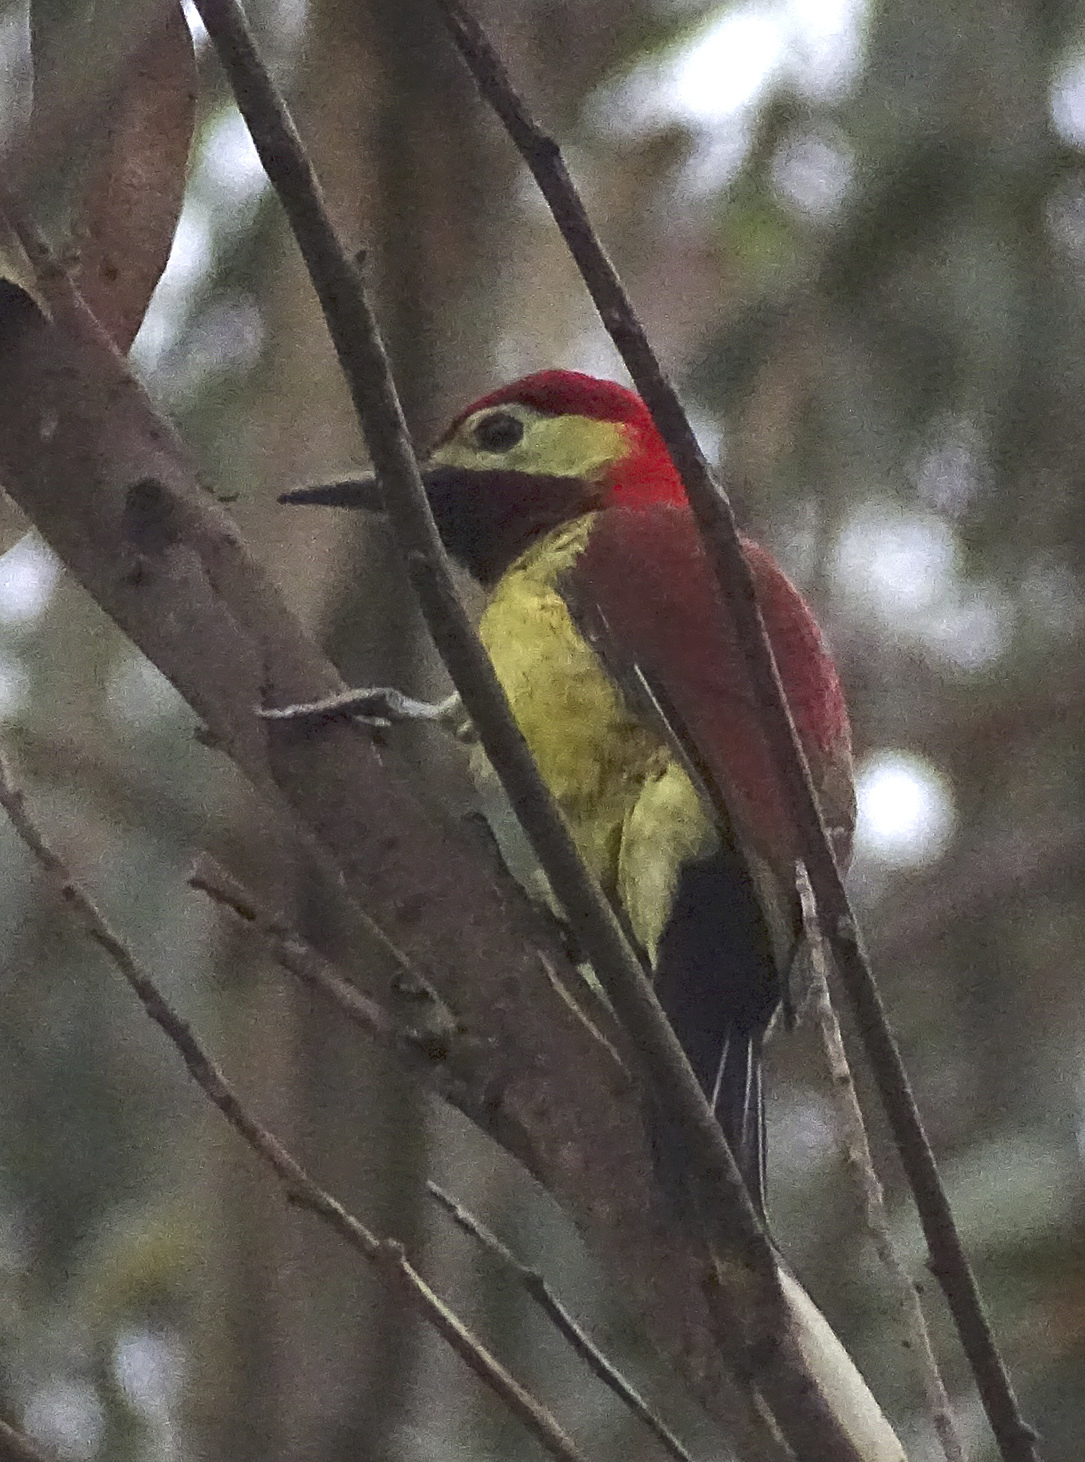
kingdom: Animalia
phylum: Chordata
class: Aves
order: Piciformes
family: Picidae
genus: Colaptes
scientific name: Colaptes rivolii
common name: Crimson-mantled woodpecker
